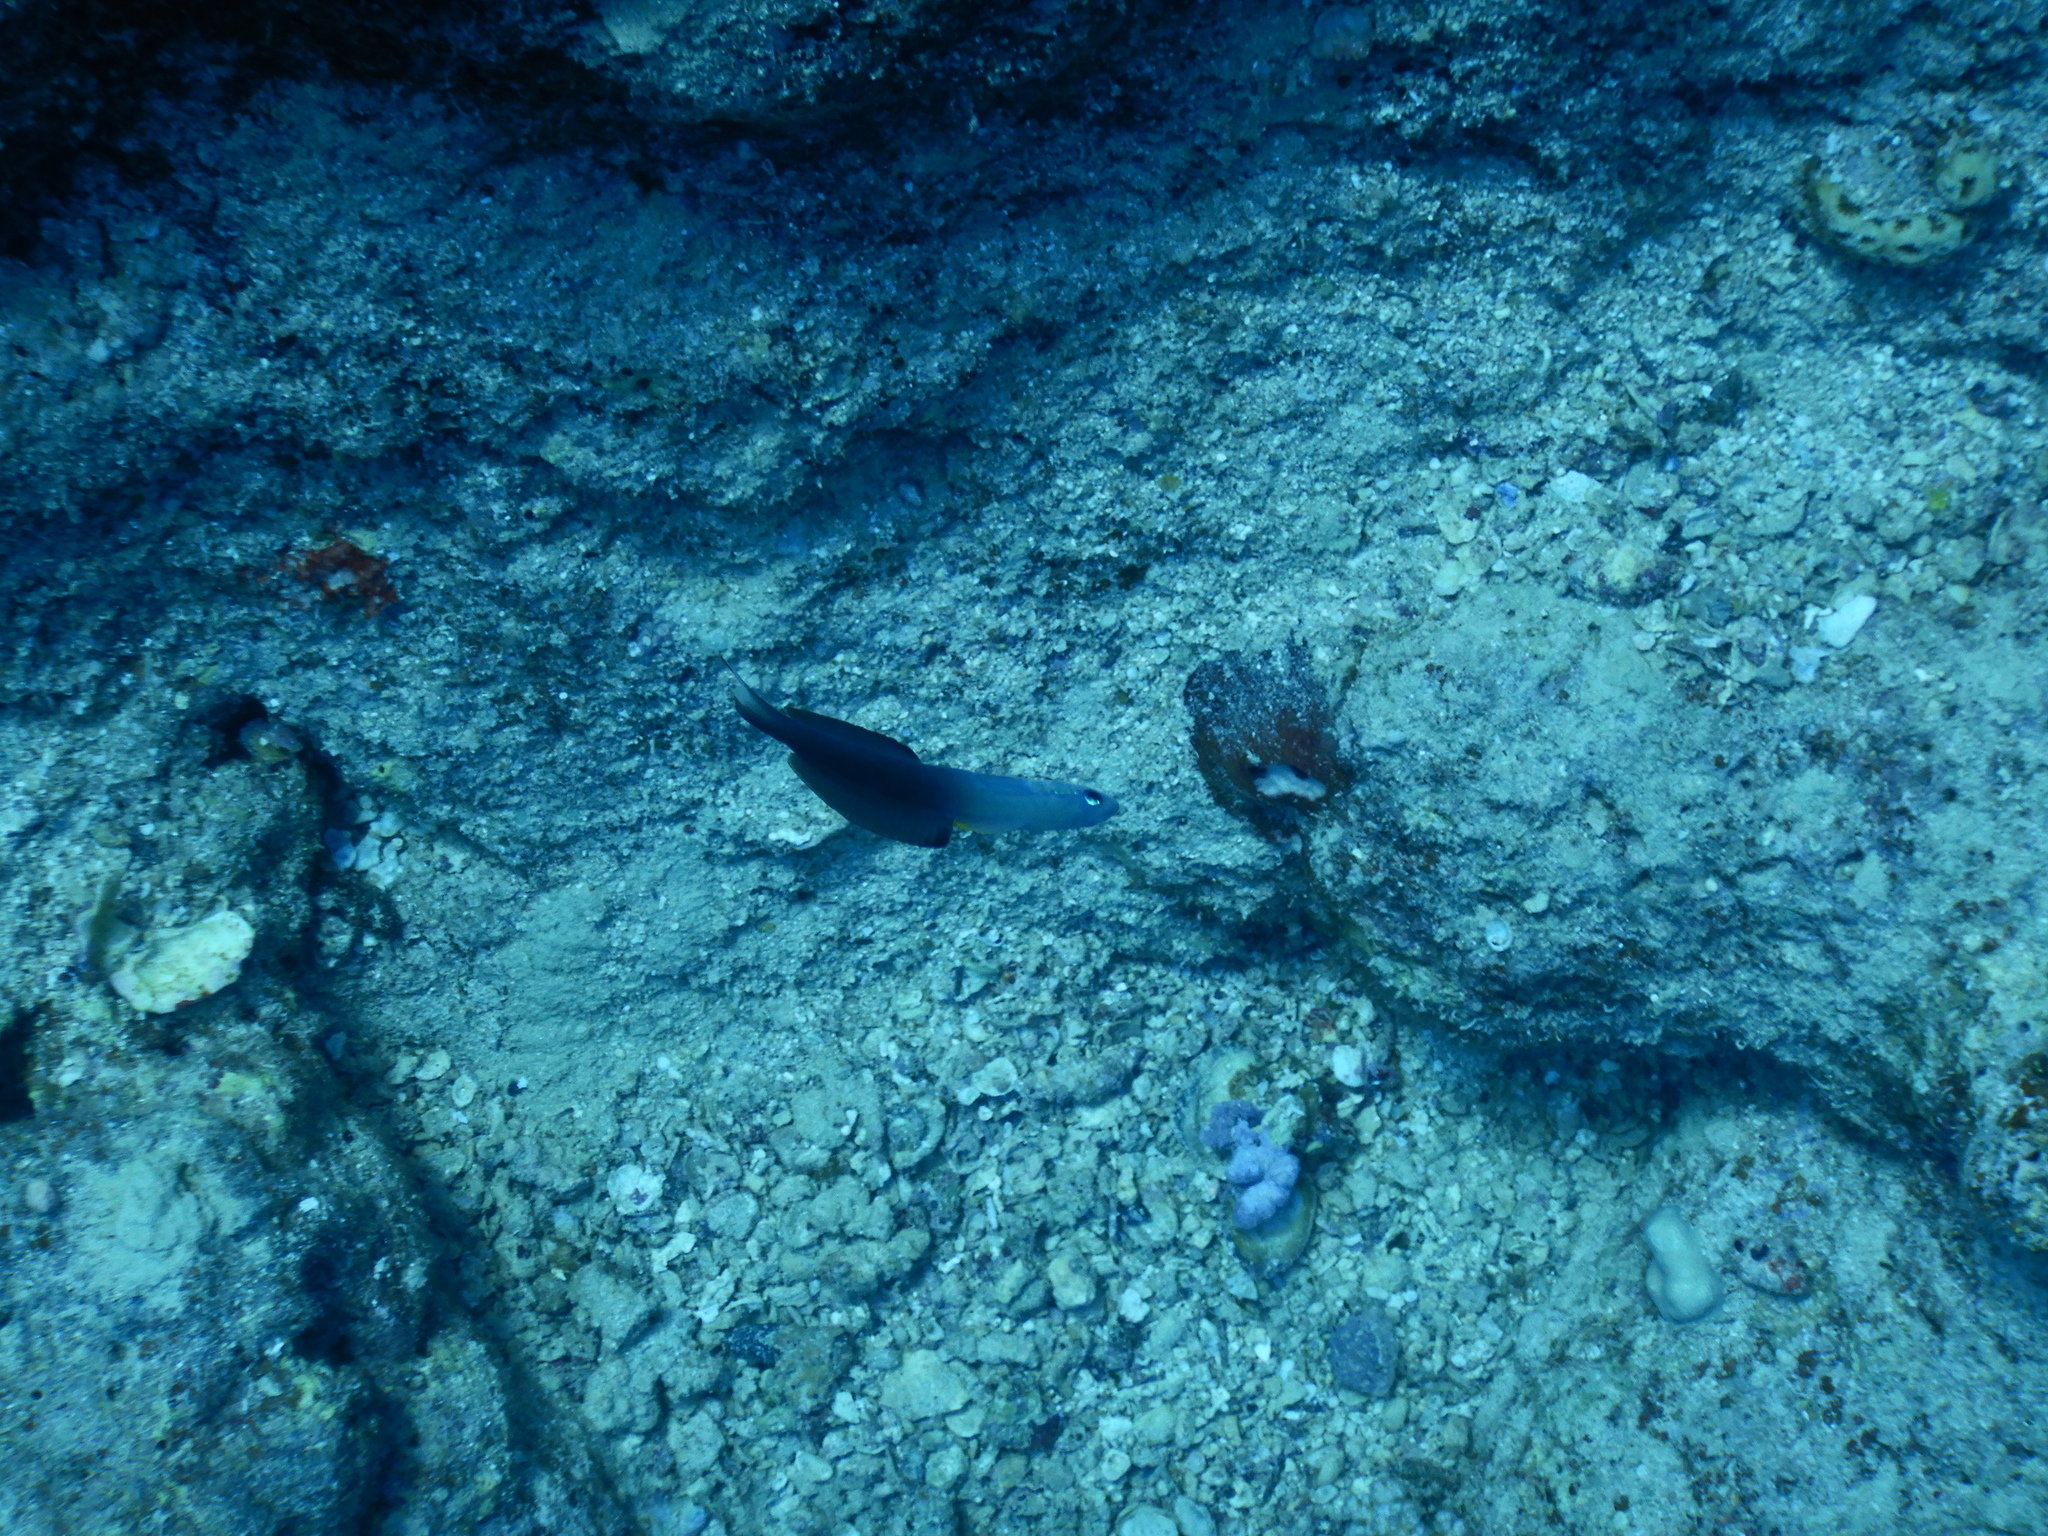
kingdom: Animalia
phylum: Chordata
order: Perciformes
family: Microdesmidae
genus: Ptereleotris
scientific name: Ptereleotris evides
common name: Blackfin dartfish
